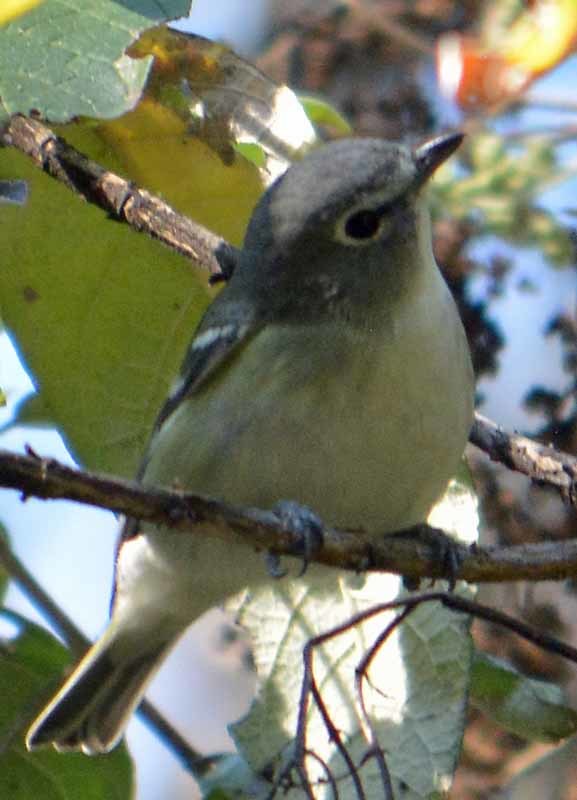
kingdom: Animalia
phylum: Chordata
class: Aves
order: Passeriformes
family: Vireonidae
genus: Vireo
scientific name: Vireo plumbeus
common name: Plumbeous vireo
